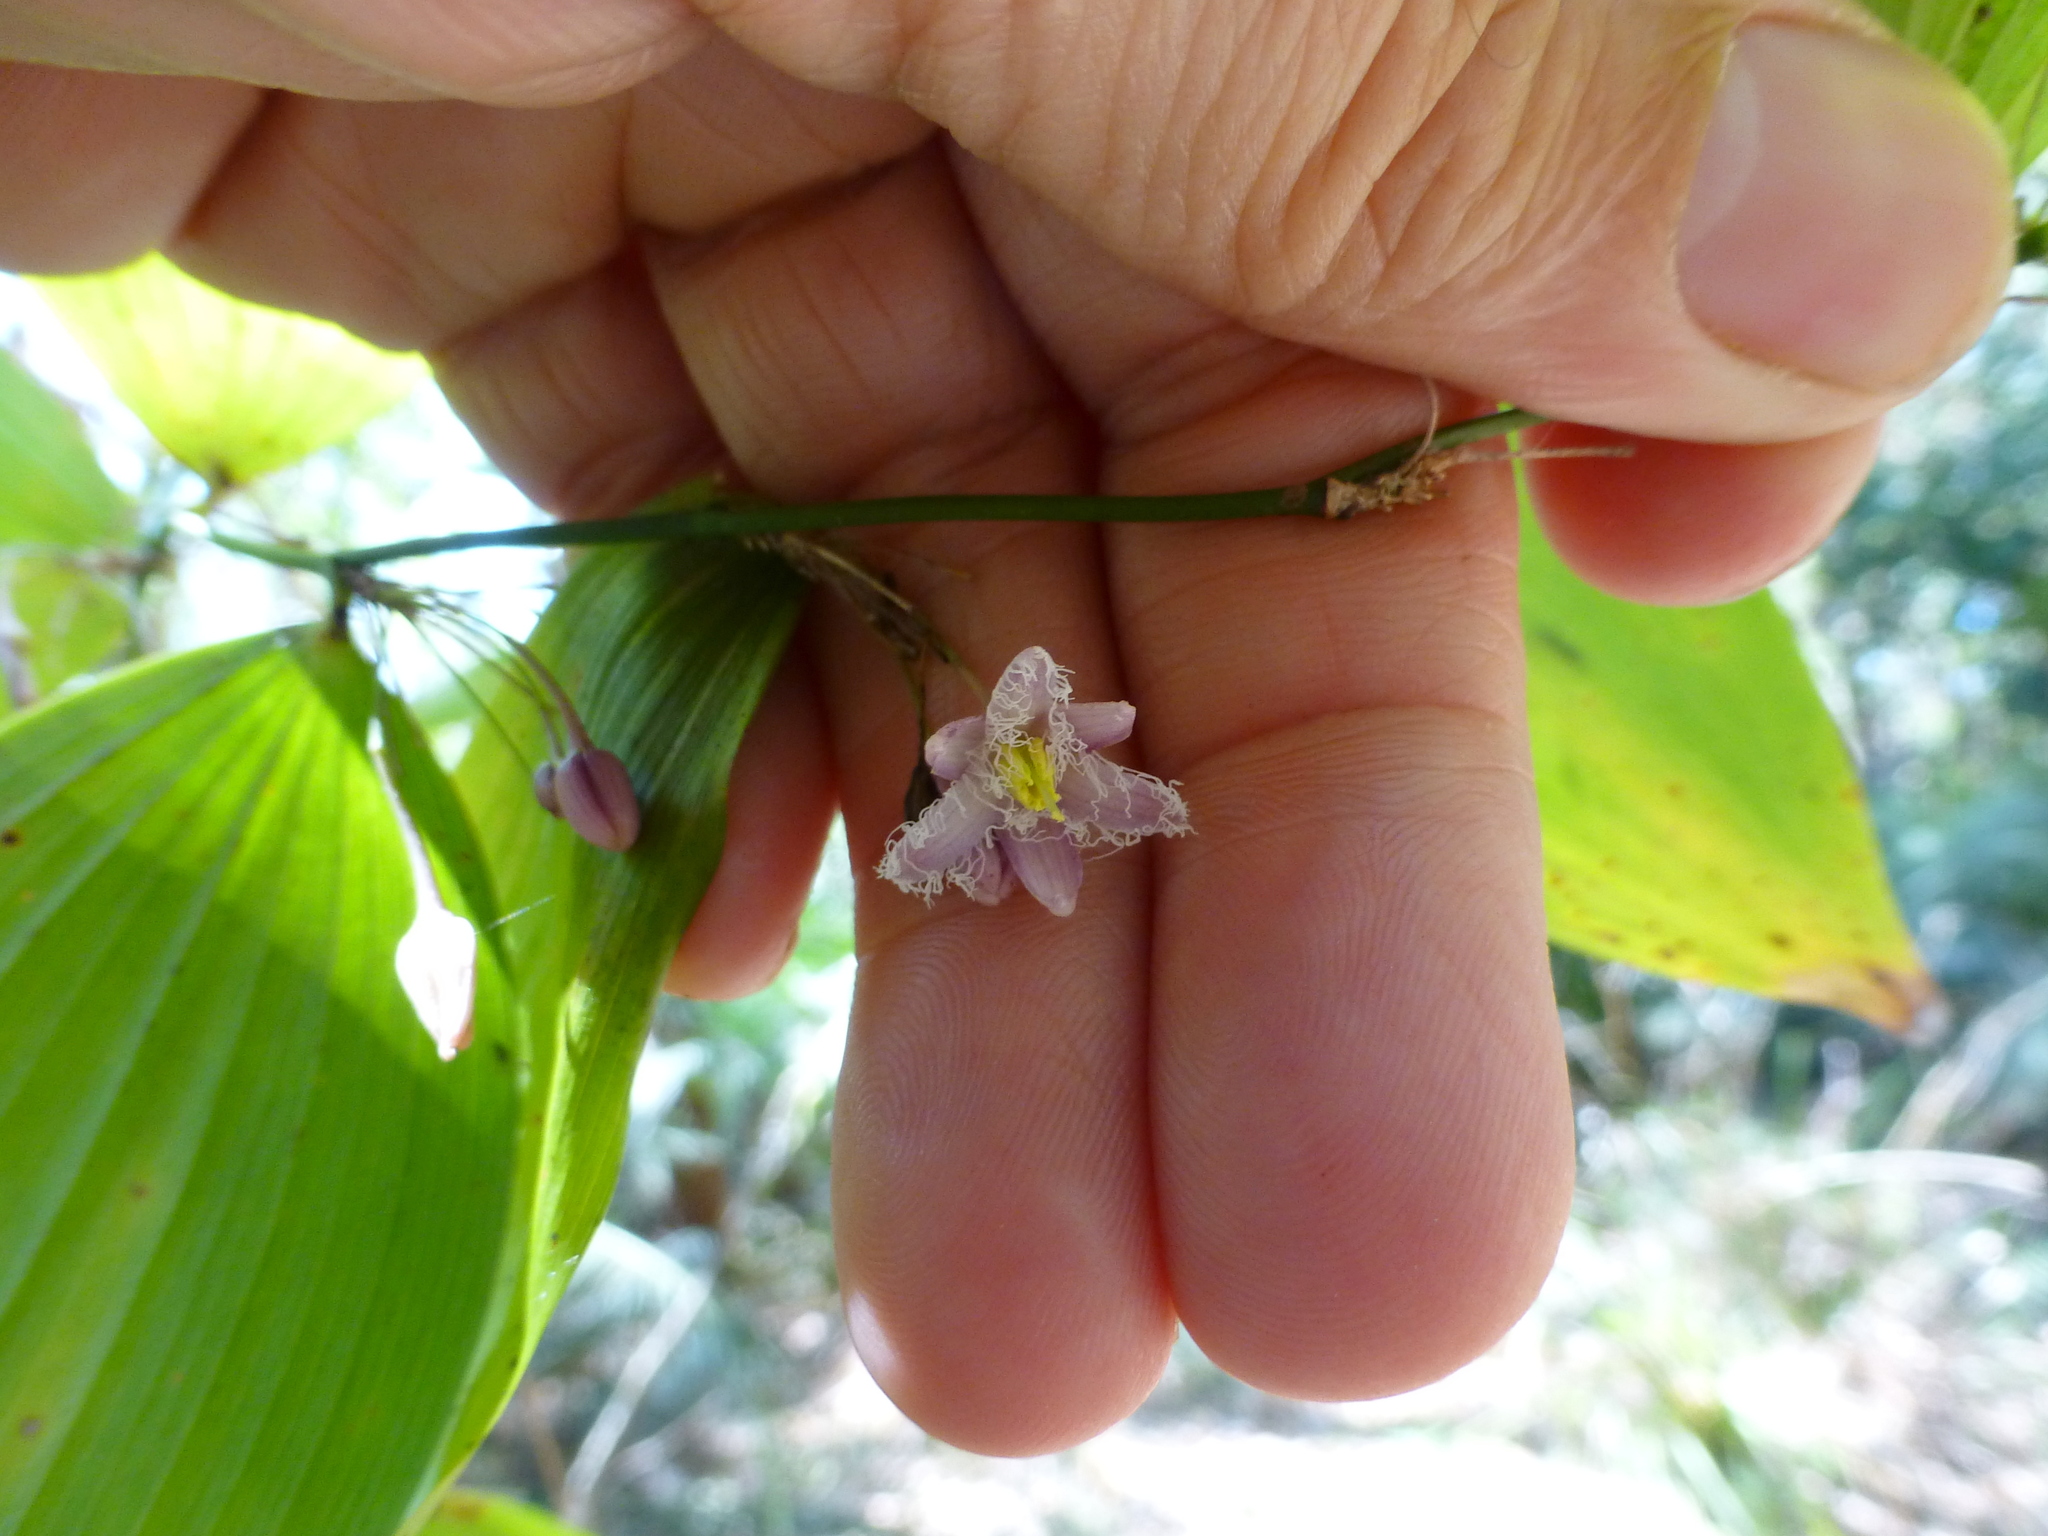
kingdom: Plantae
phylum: Tracheophyta
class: Liliopsida
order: Asparagales
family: Asparagaceae
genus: Eustrephus
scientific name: Eustrephus latifolius
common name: Orangevine
